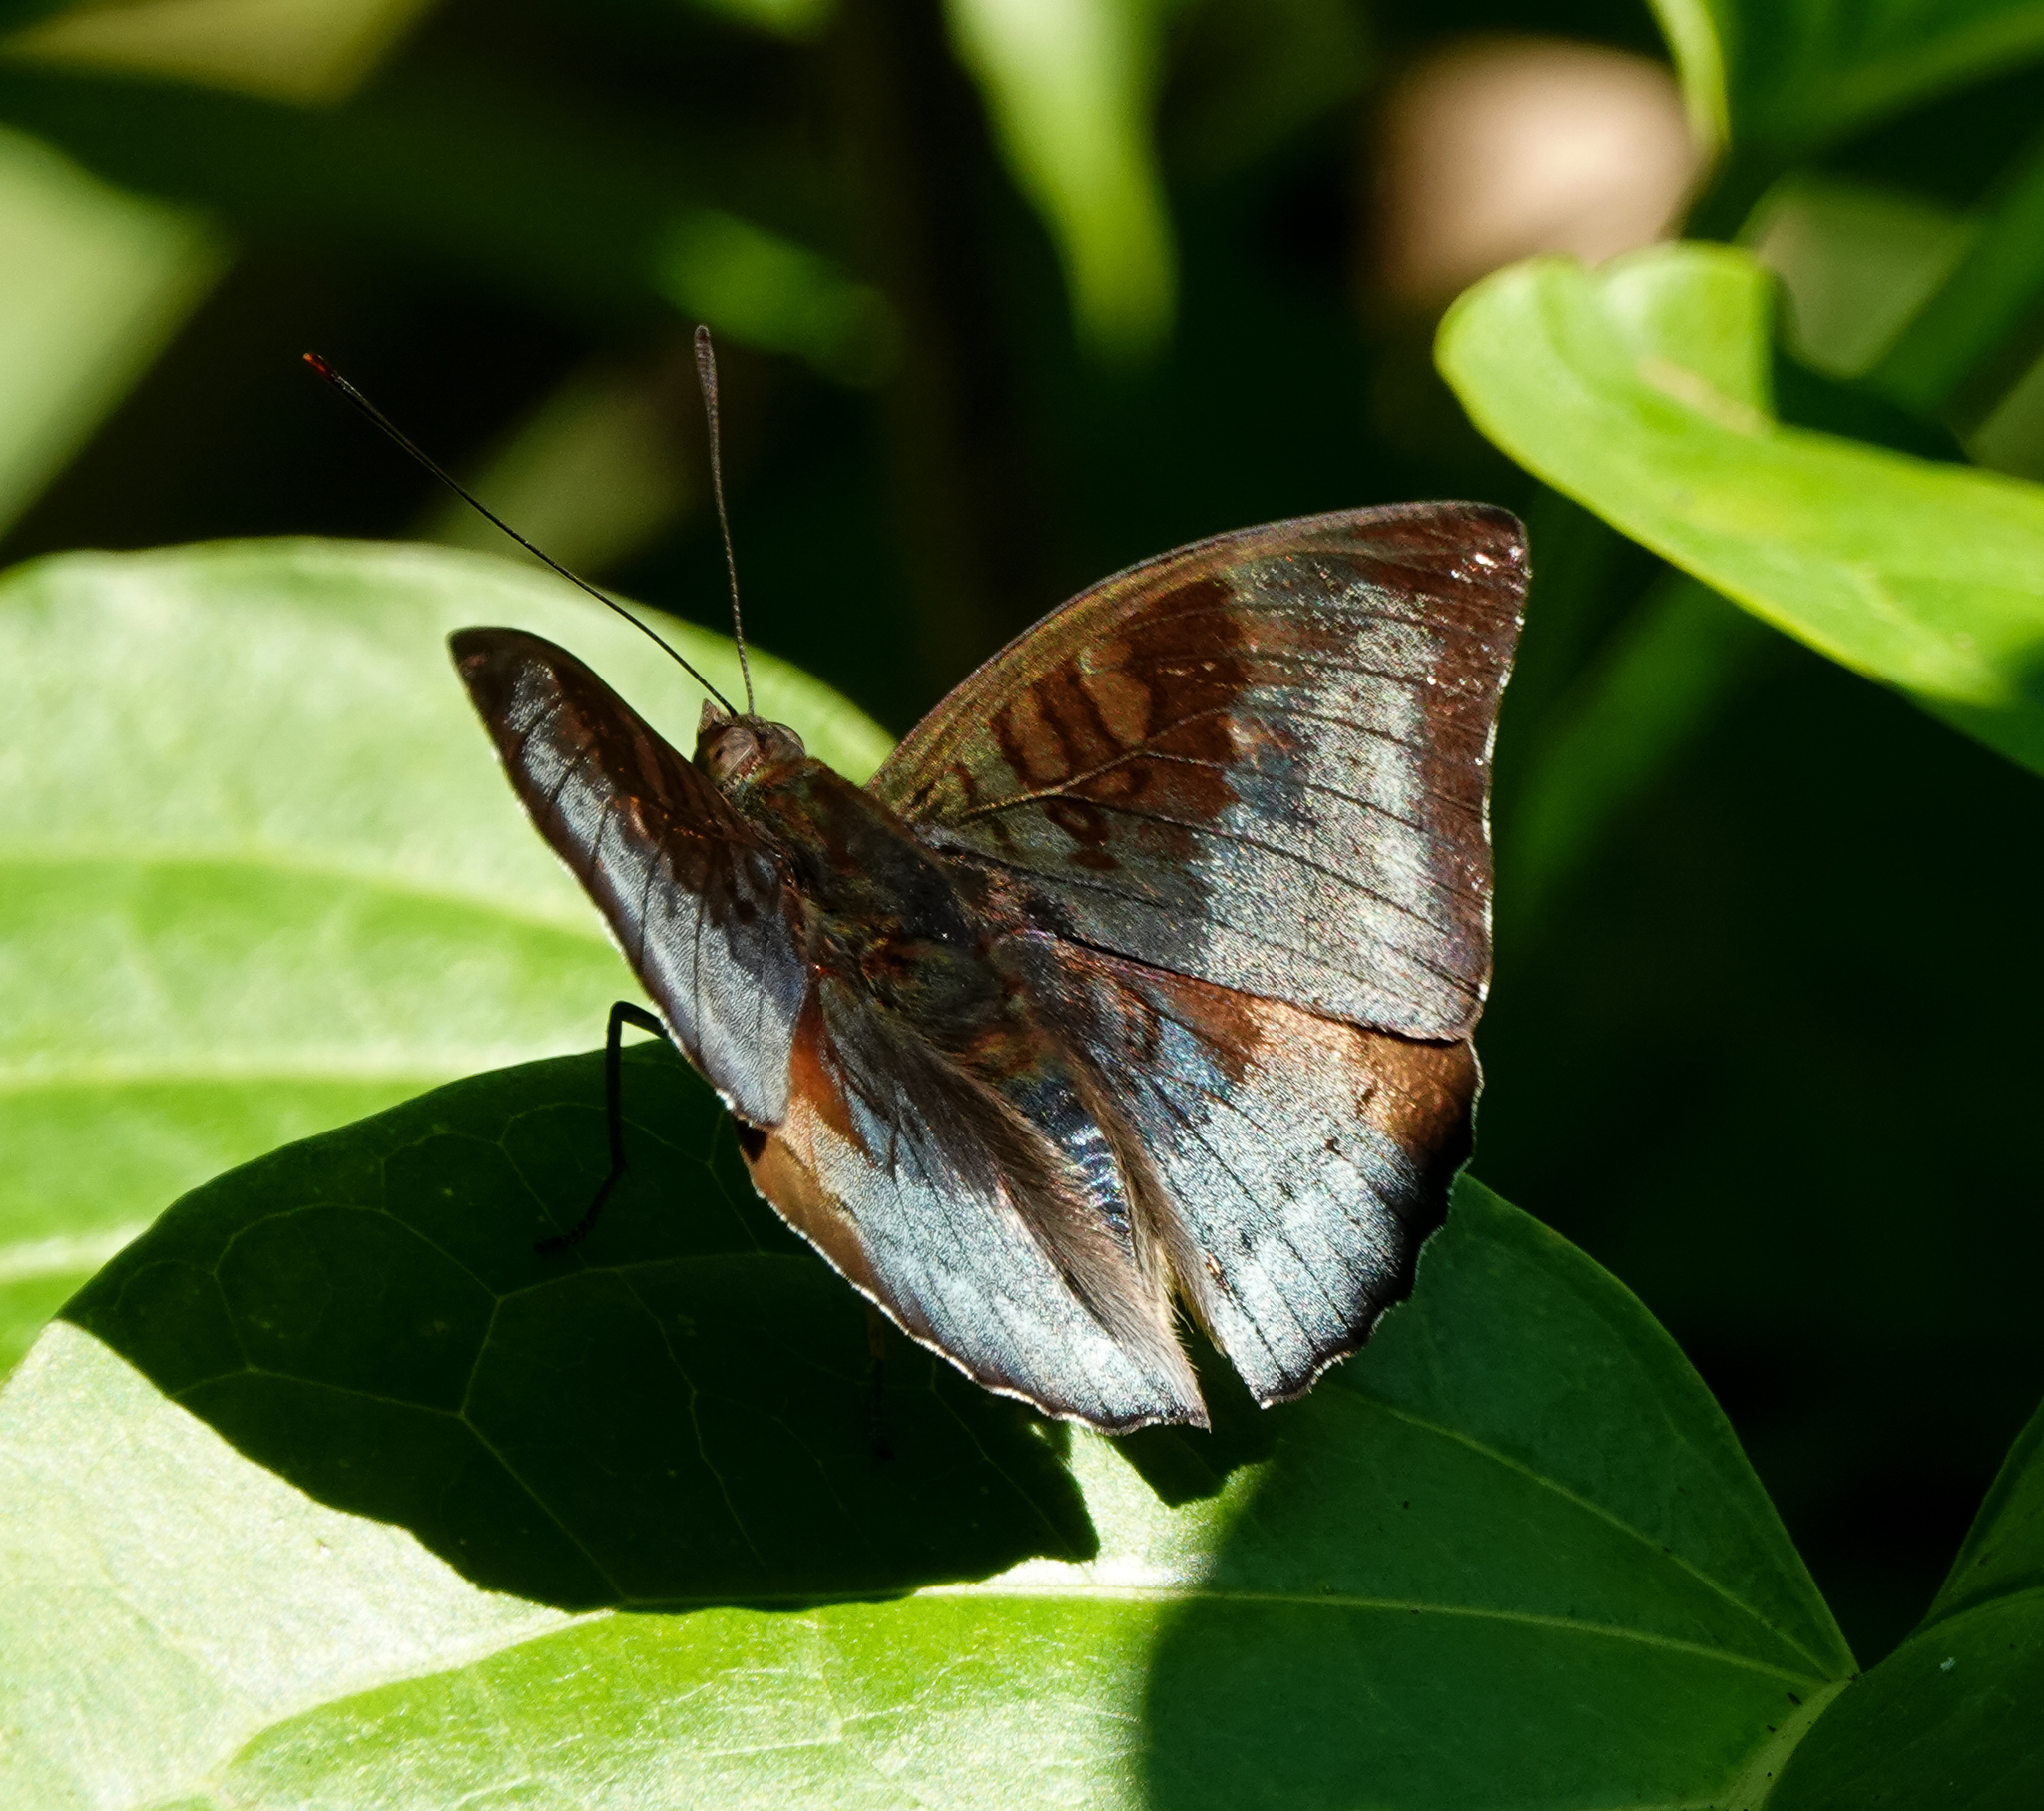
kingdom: Animalia
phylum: Arthropoda
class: Insecta
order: Lepidoptera
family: Nymphalidae
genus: Euthalia
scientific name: Euthalia monina
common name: Powdered baron
